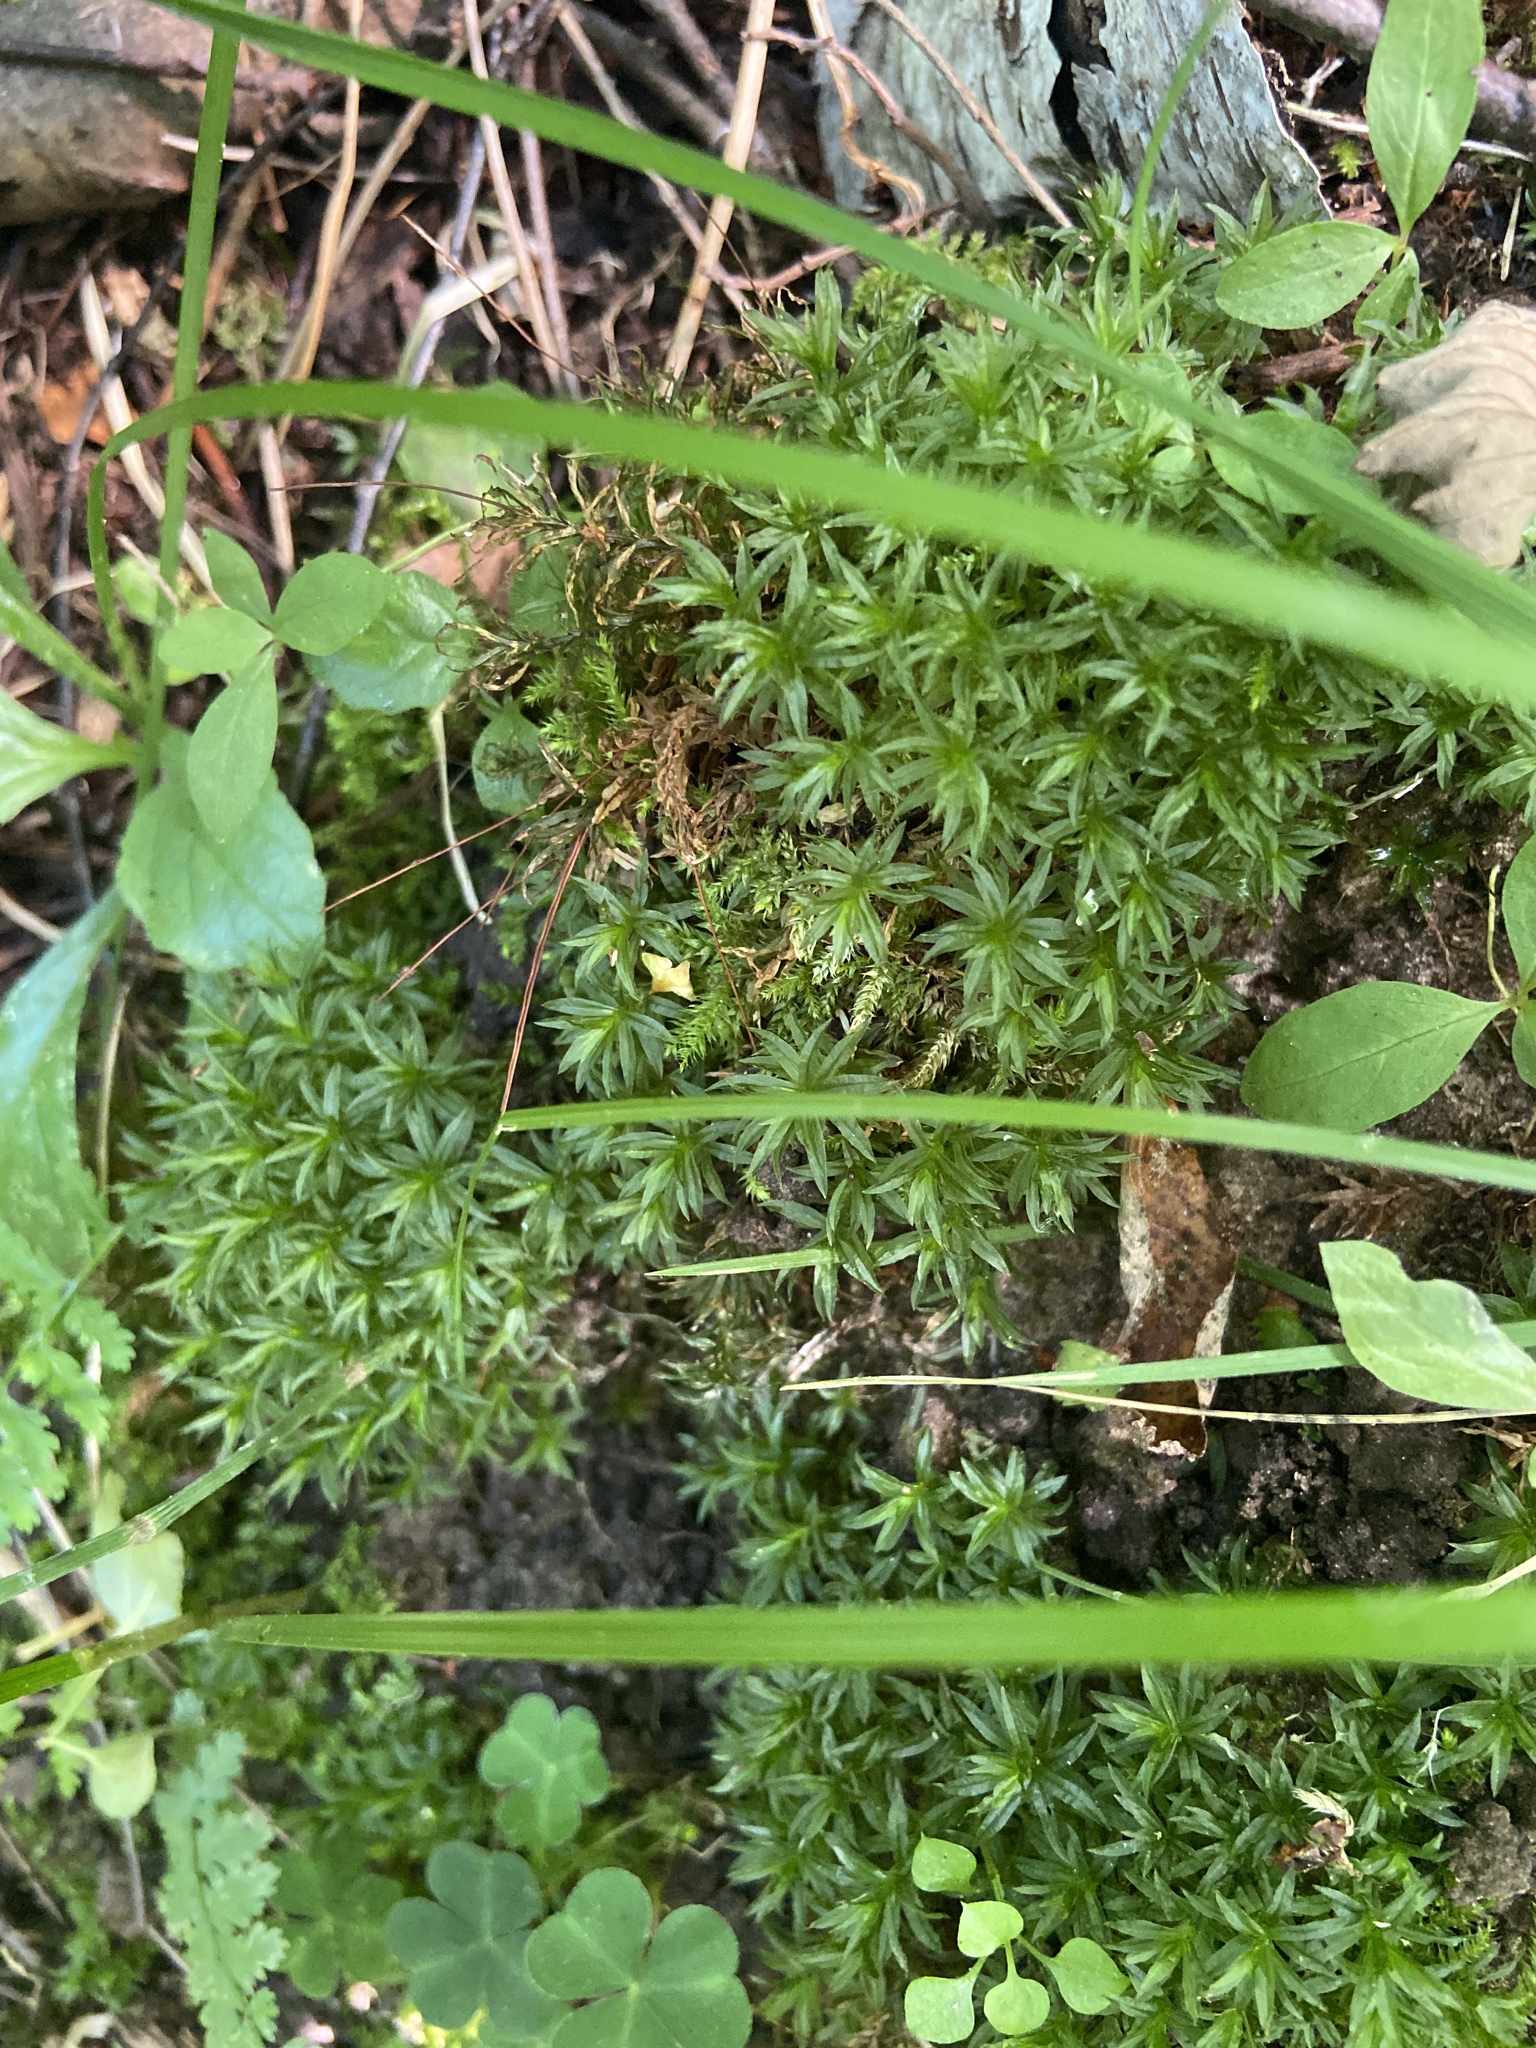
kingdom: Plantae
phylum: Bryophyta
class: Polytrichopsida
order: Polytrichales
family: Polytrichaceae
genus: Atrichum
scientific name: Atrichum undulatum
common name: Common smoothcap
